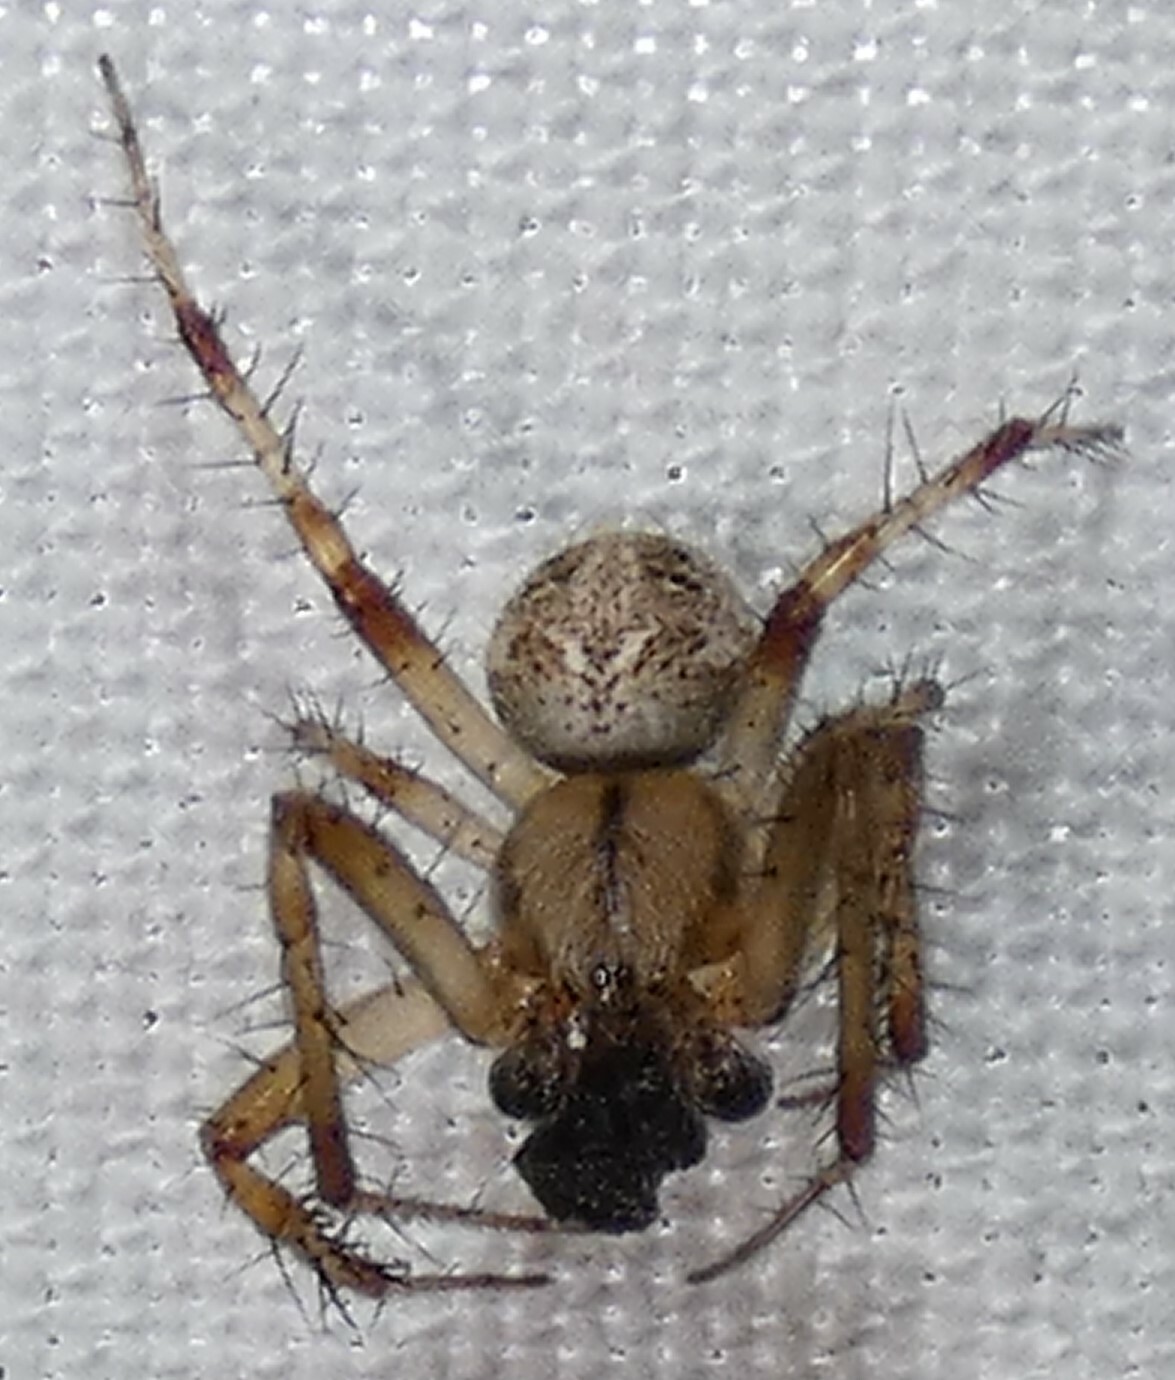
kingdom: Animalia
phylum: Arthropoda
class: Arachnida
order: Araneae
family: Araneidae
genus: Neoscona
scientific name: Neoscona arabesca
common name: Orb weavers
